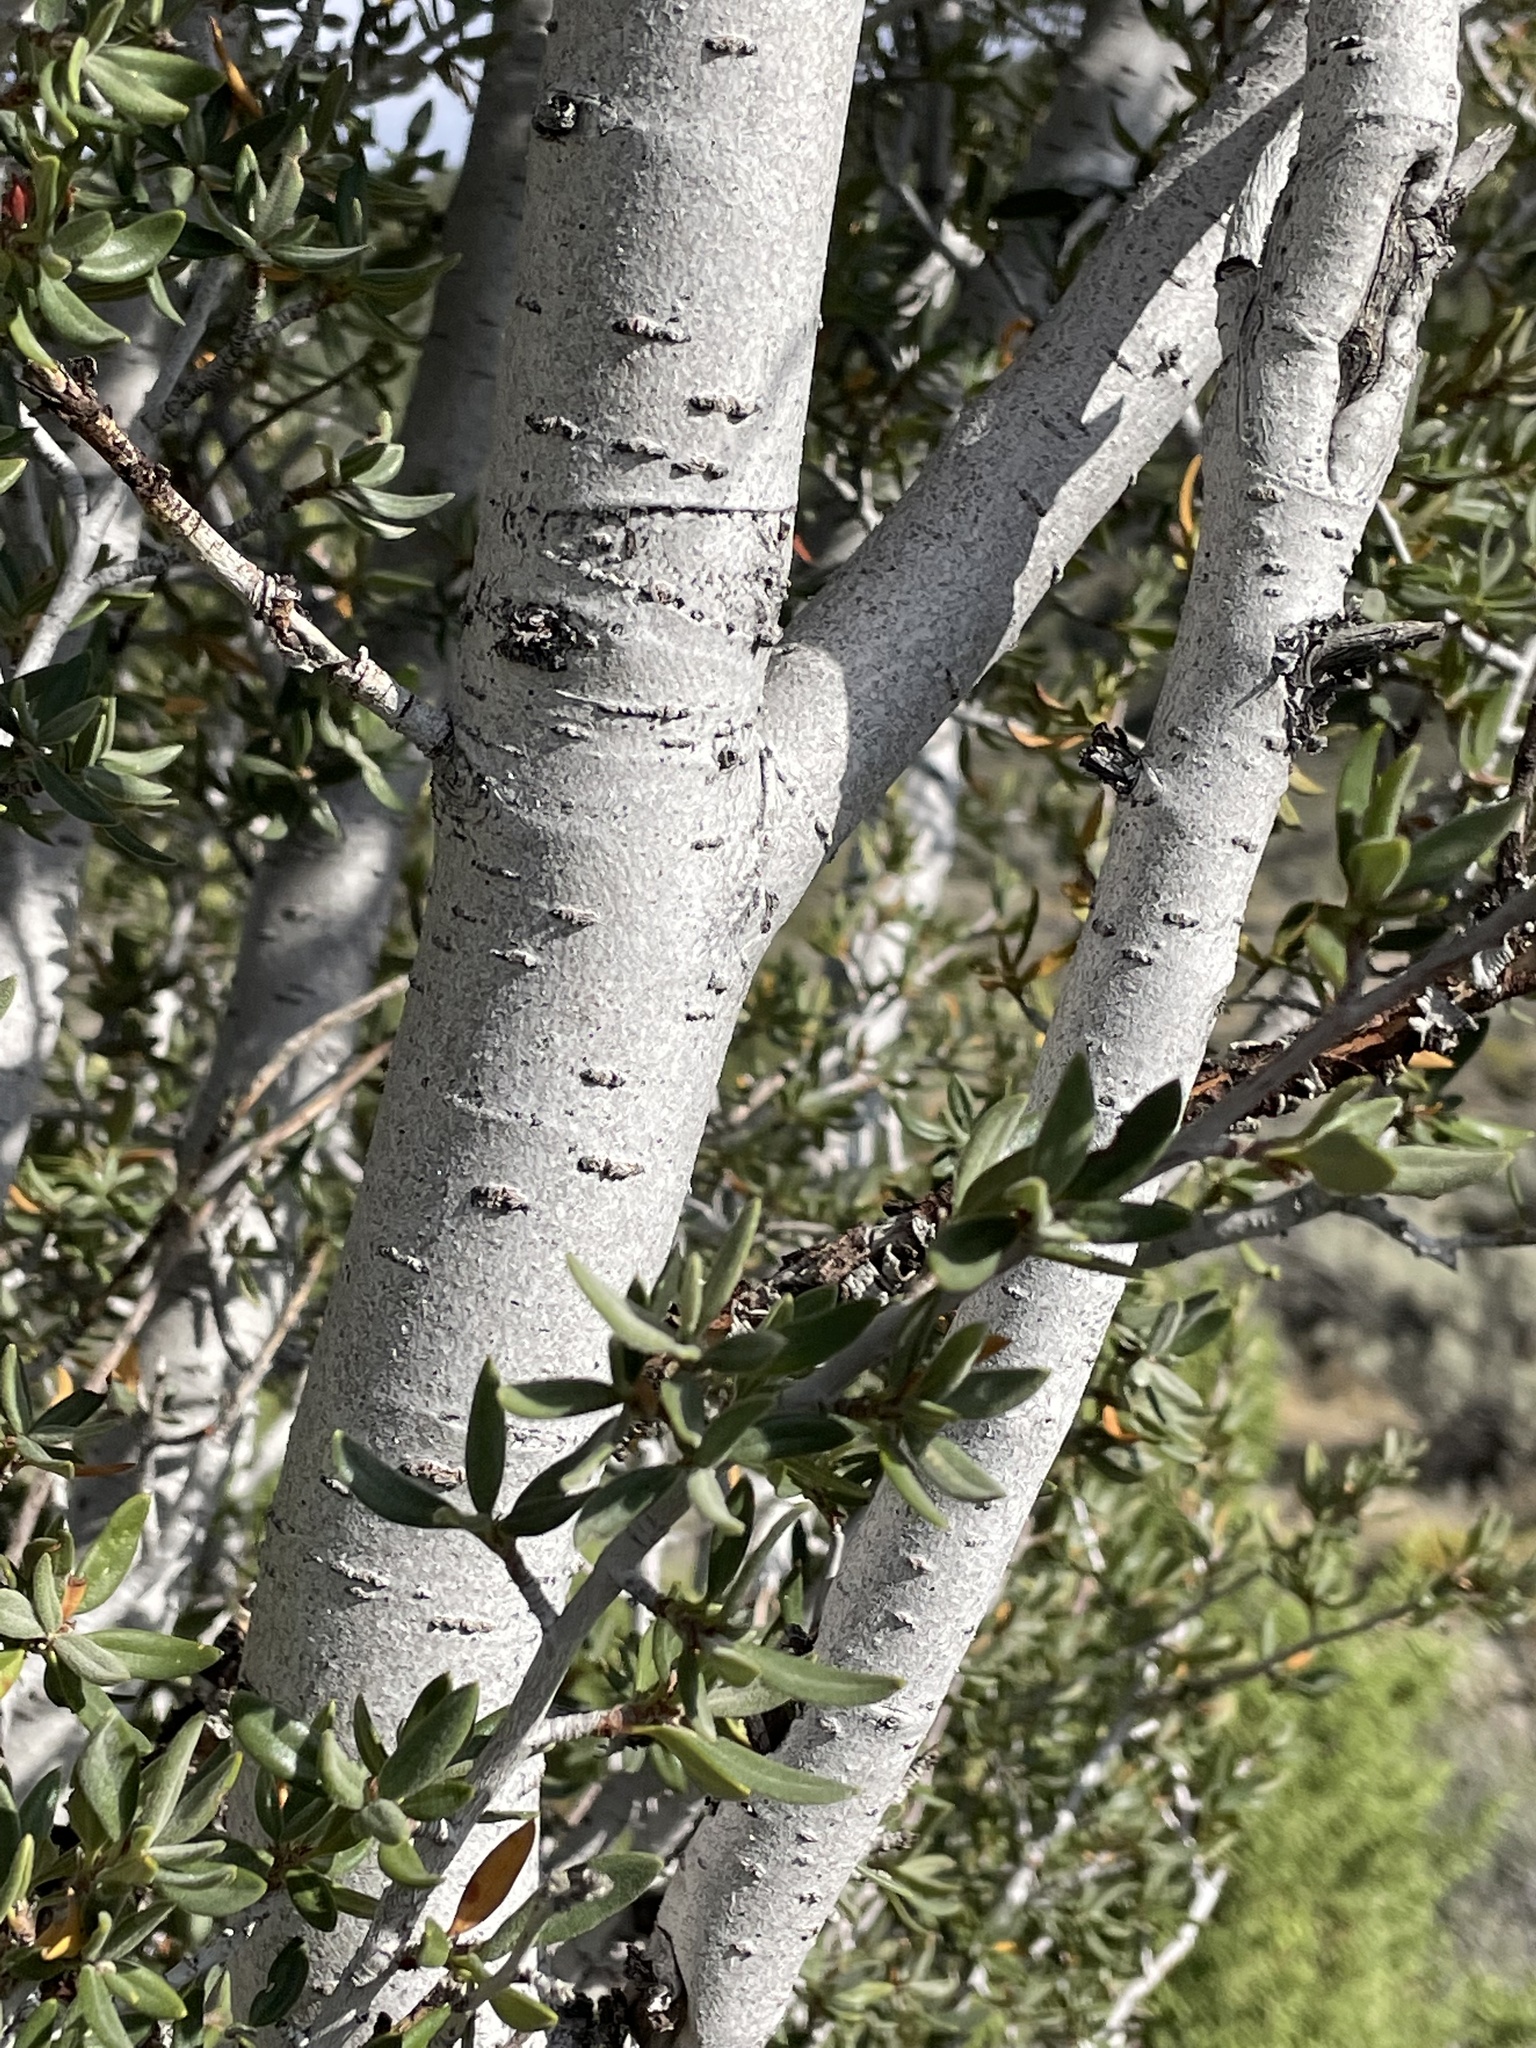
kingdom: Plantae
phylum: Tracheophyta
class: Magnoliopsida
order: Rosales
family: Rosaceae
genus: Cercocarpus
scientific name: Cercocarpus ledifolius
